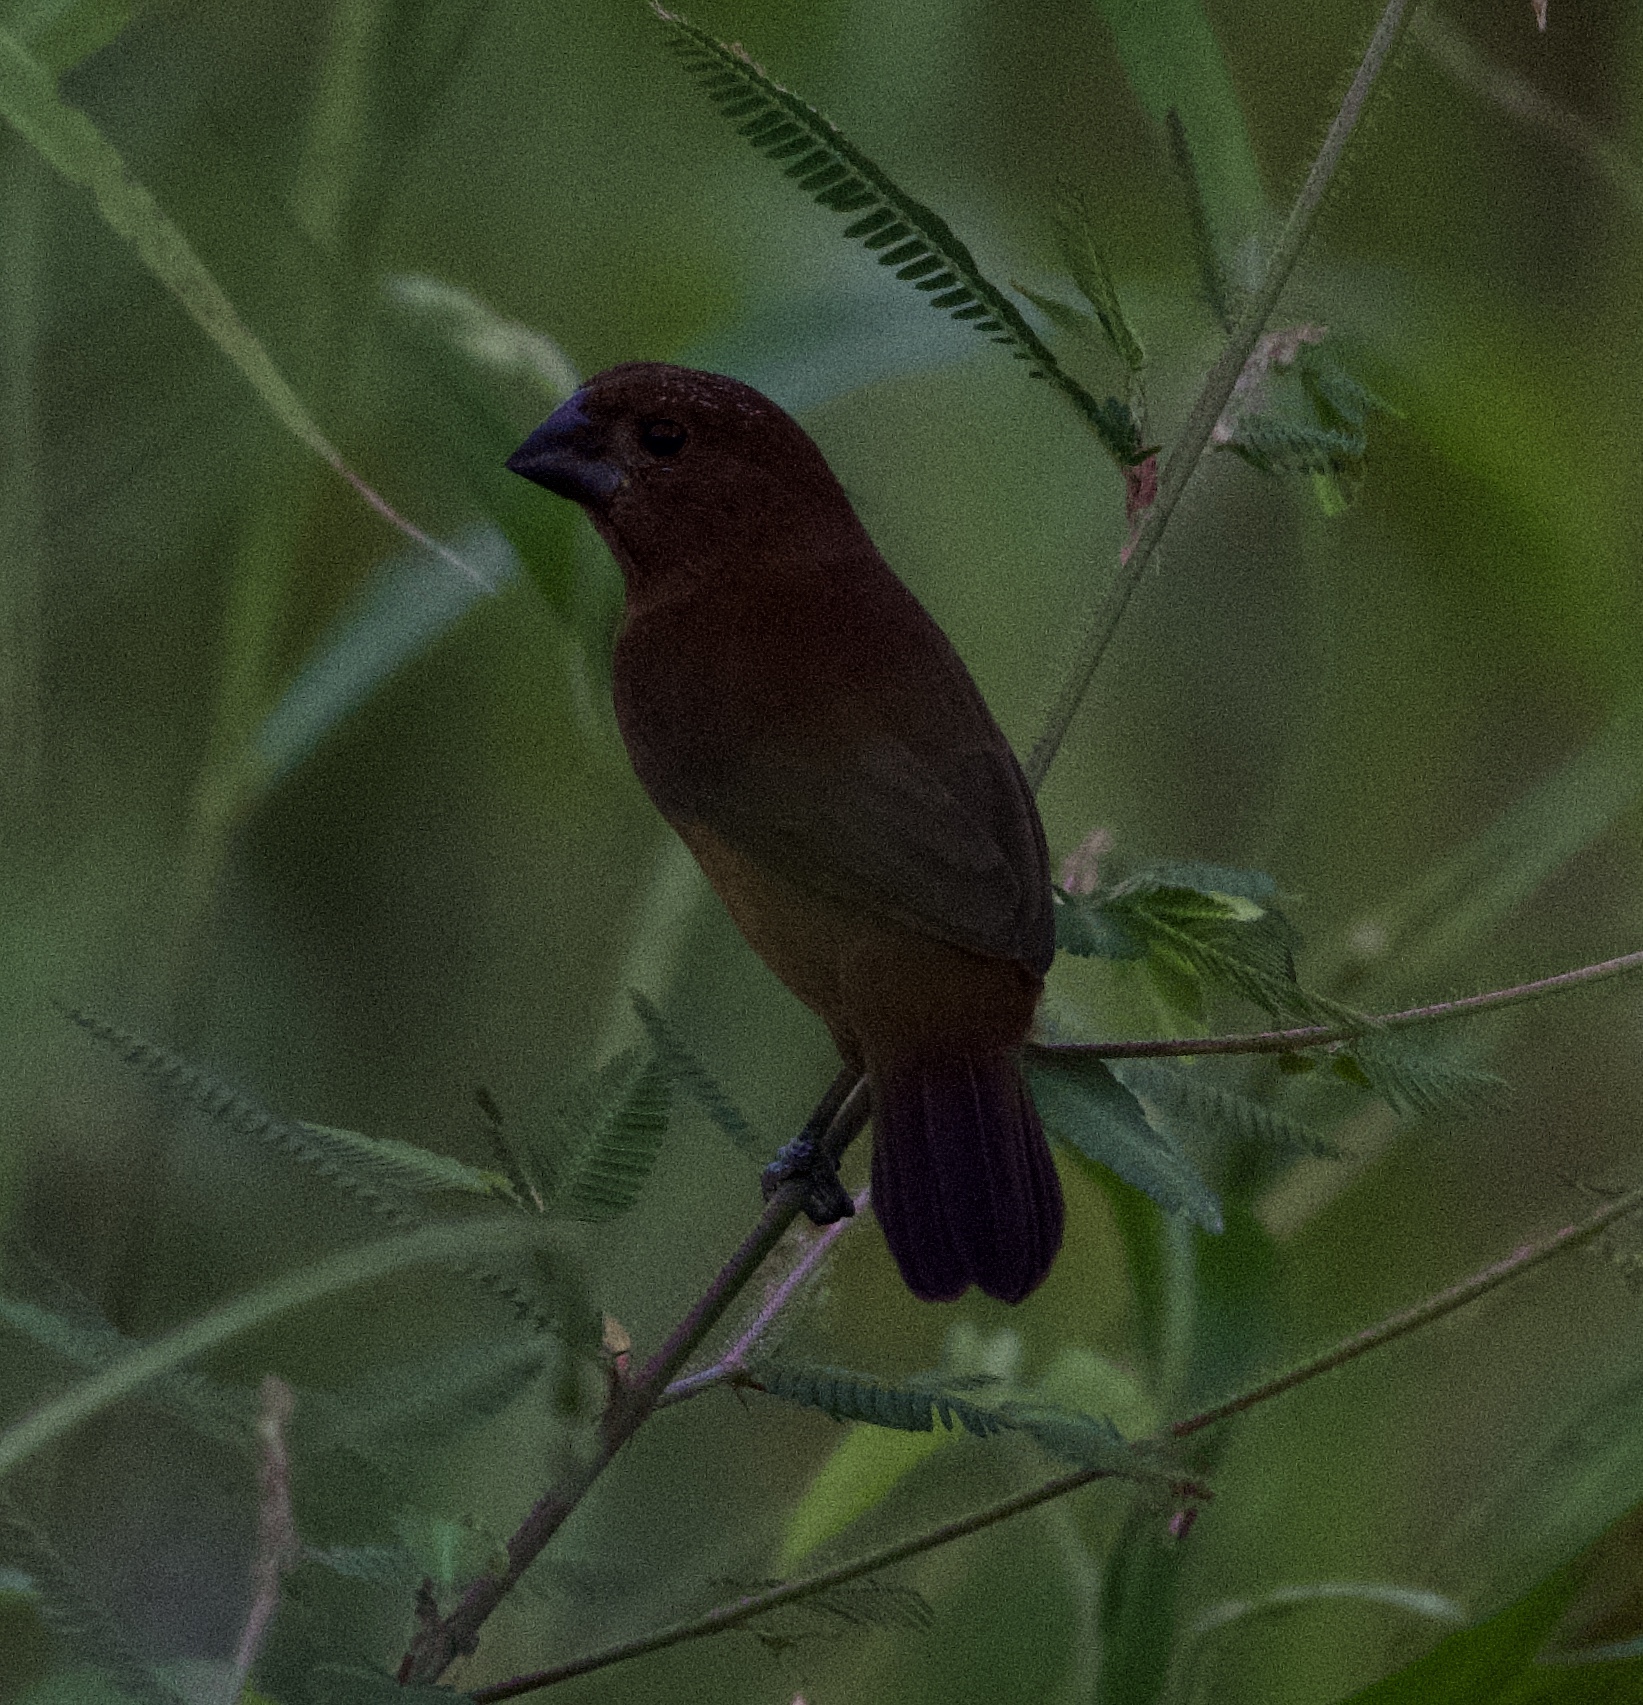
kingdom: Animalia
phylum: Chordata
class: Aves
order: Passeriformes
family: Thraupidae
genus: Sporophila
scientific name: Sporophila funerea
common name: Thick-billed seed-finch
